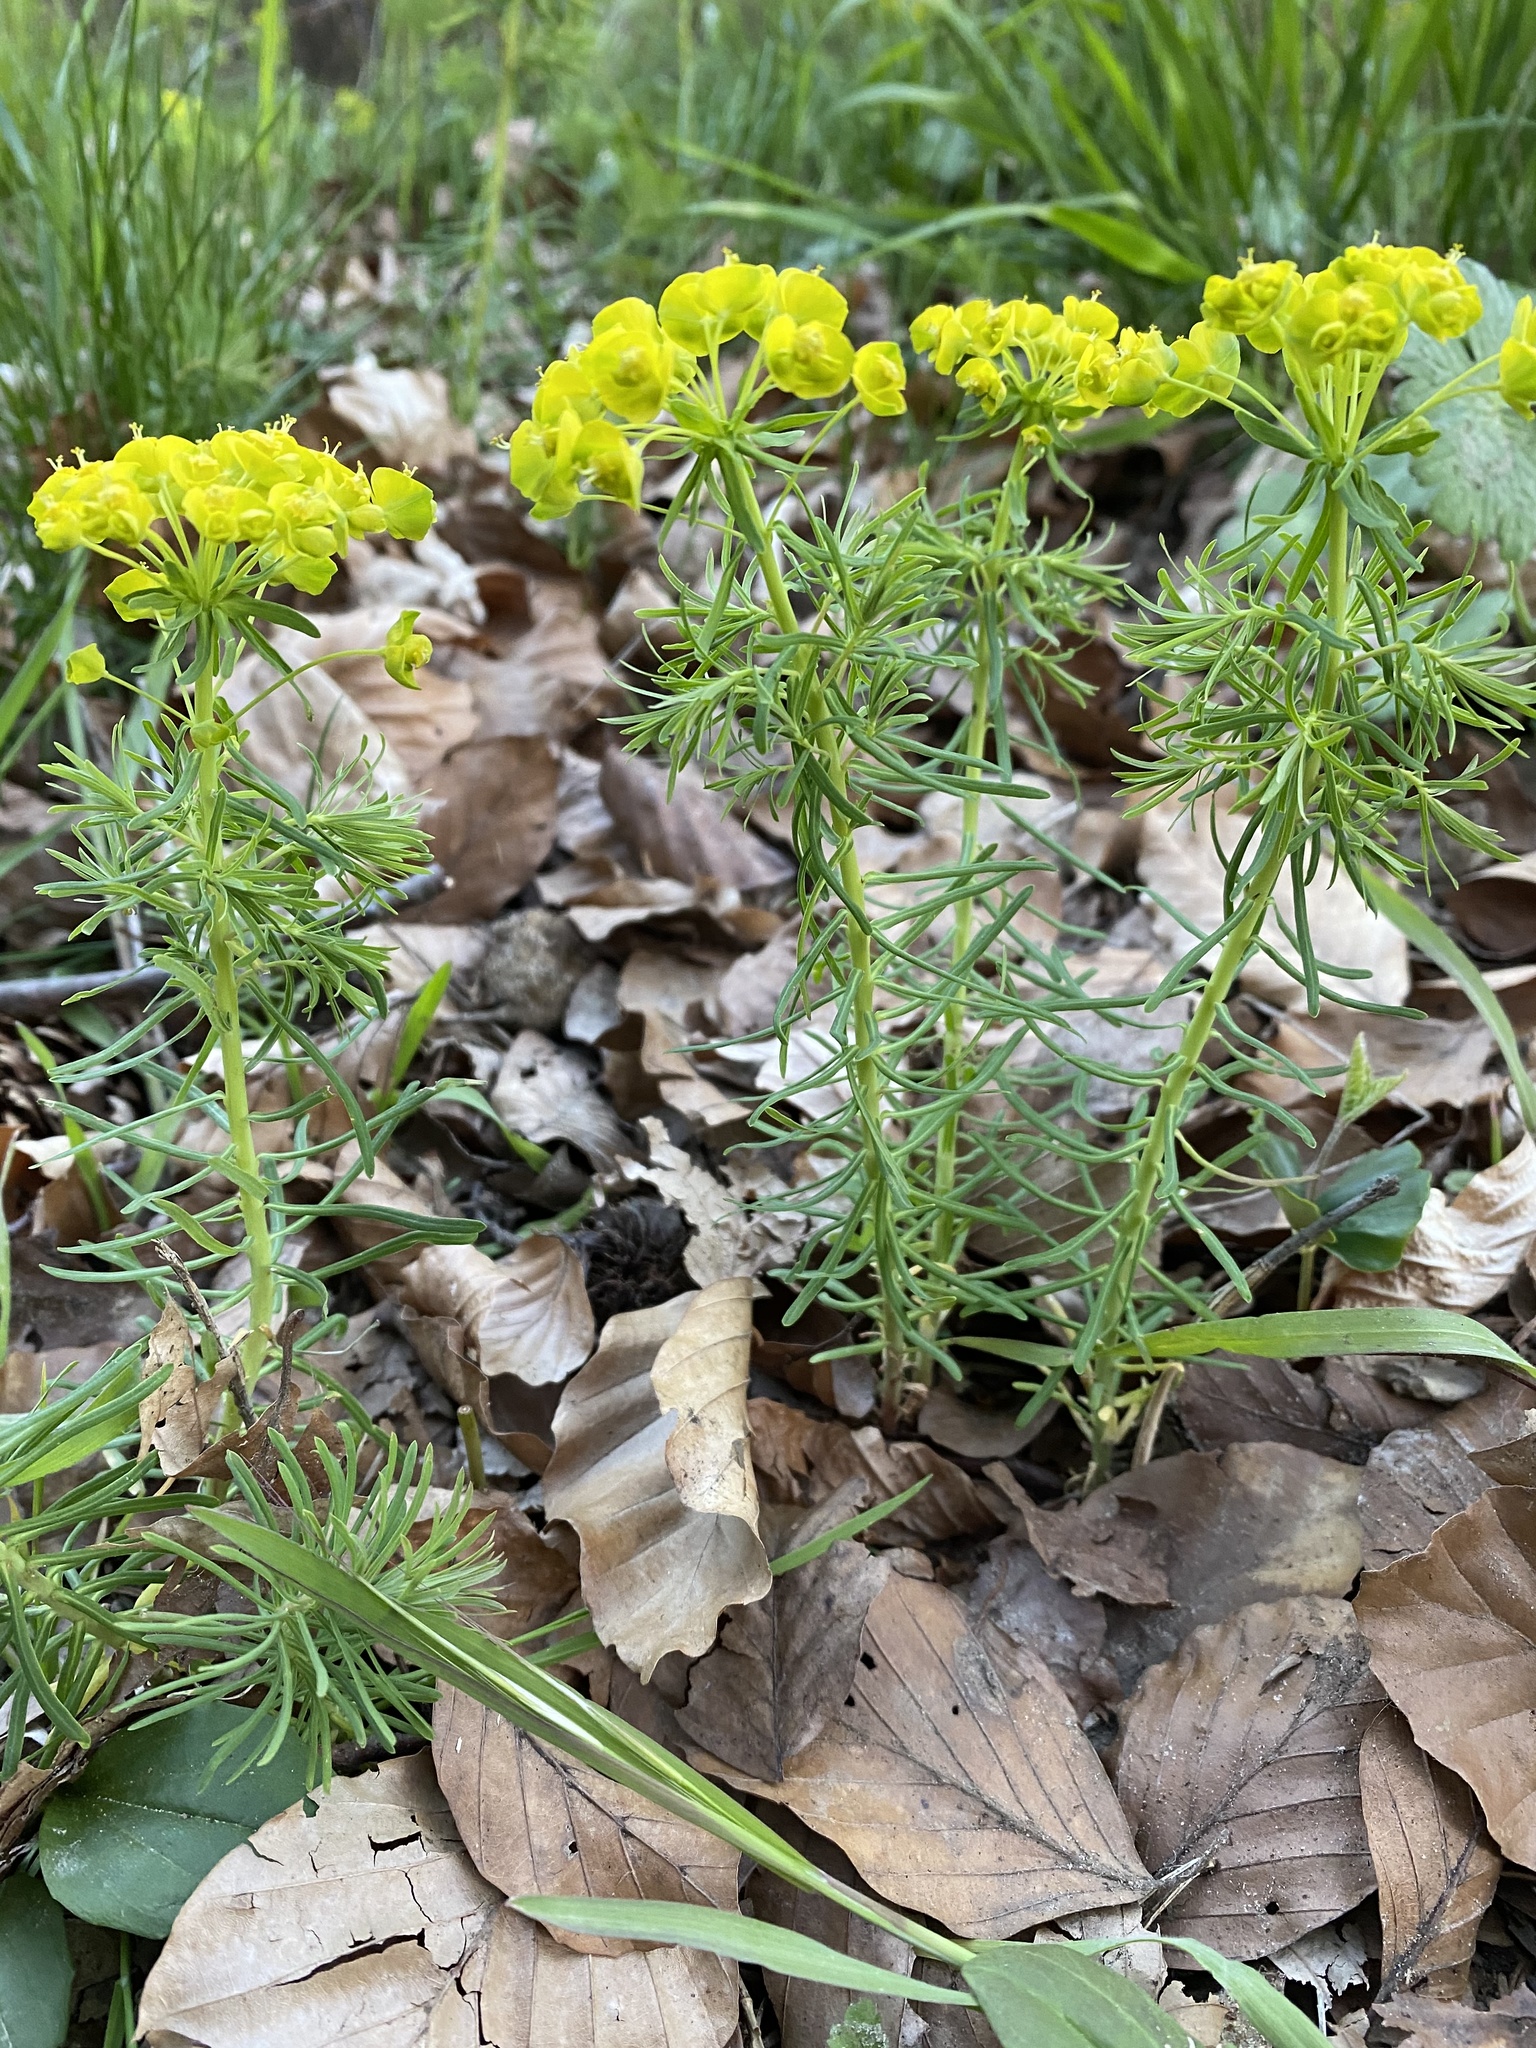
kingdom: Plantae
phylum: Tracheophyta
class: Magnoliopsida
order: Malpighiales
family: Euphorbiaceae
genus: Euphorbia
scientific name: Euphorbia cyparissias
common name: Cypress spurge
